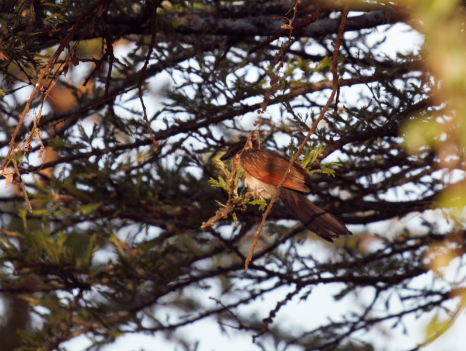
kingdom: Animalia
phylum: Chordata
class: Aves
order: Cuculiformes
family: Cuculidae
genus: Centropus
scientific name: Centropus superciliosus
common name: White-browed coucal
